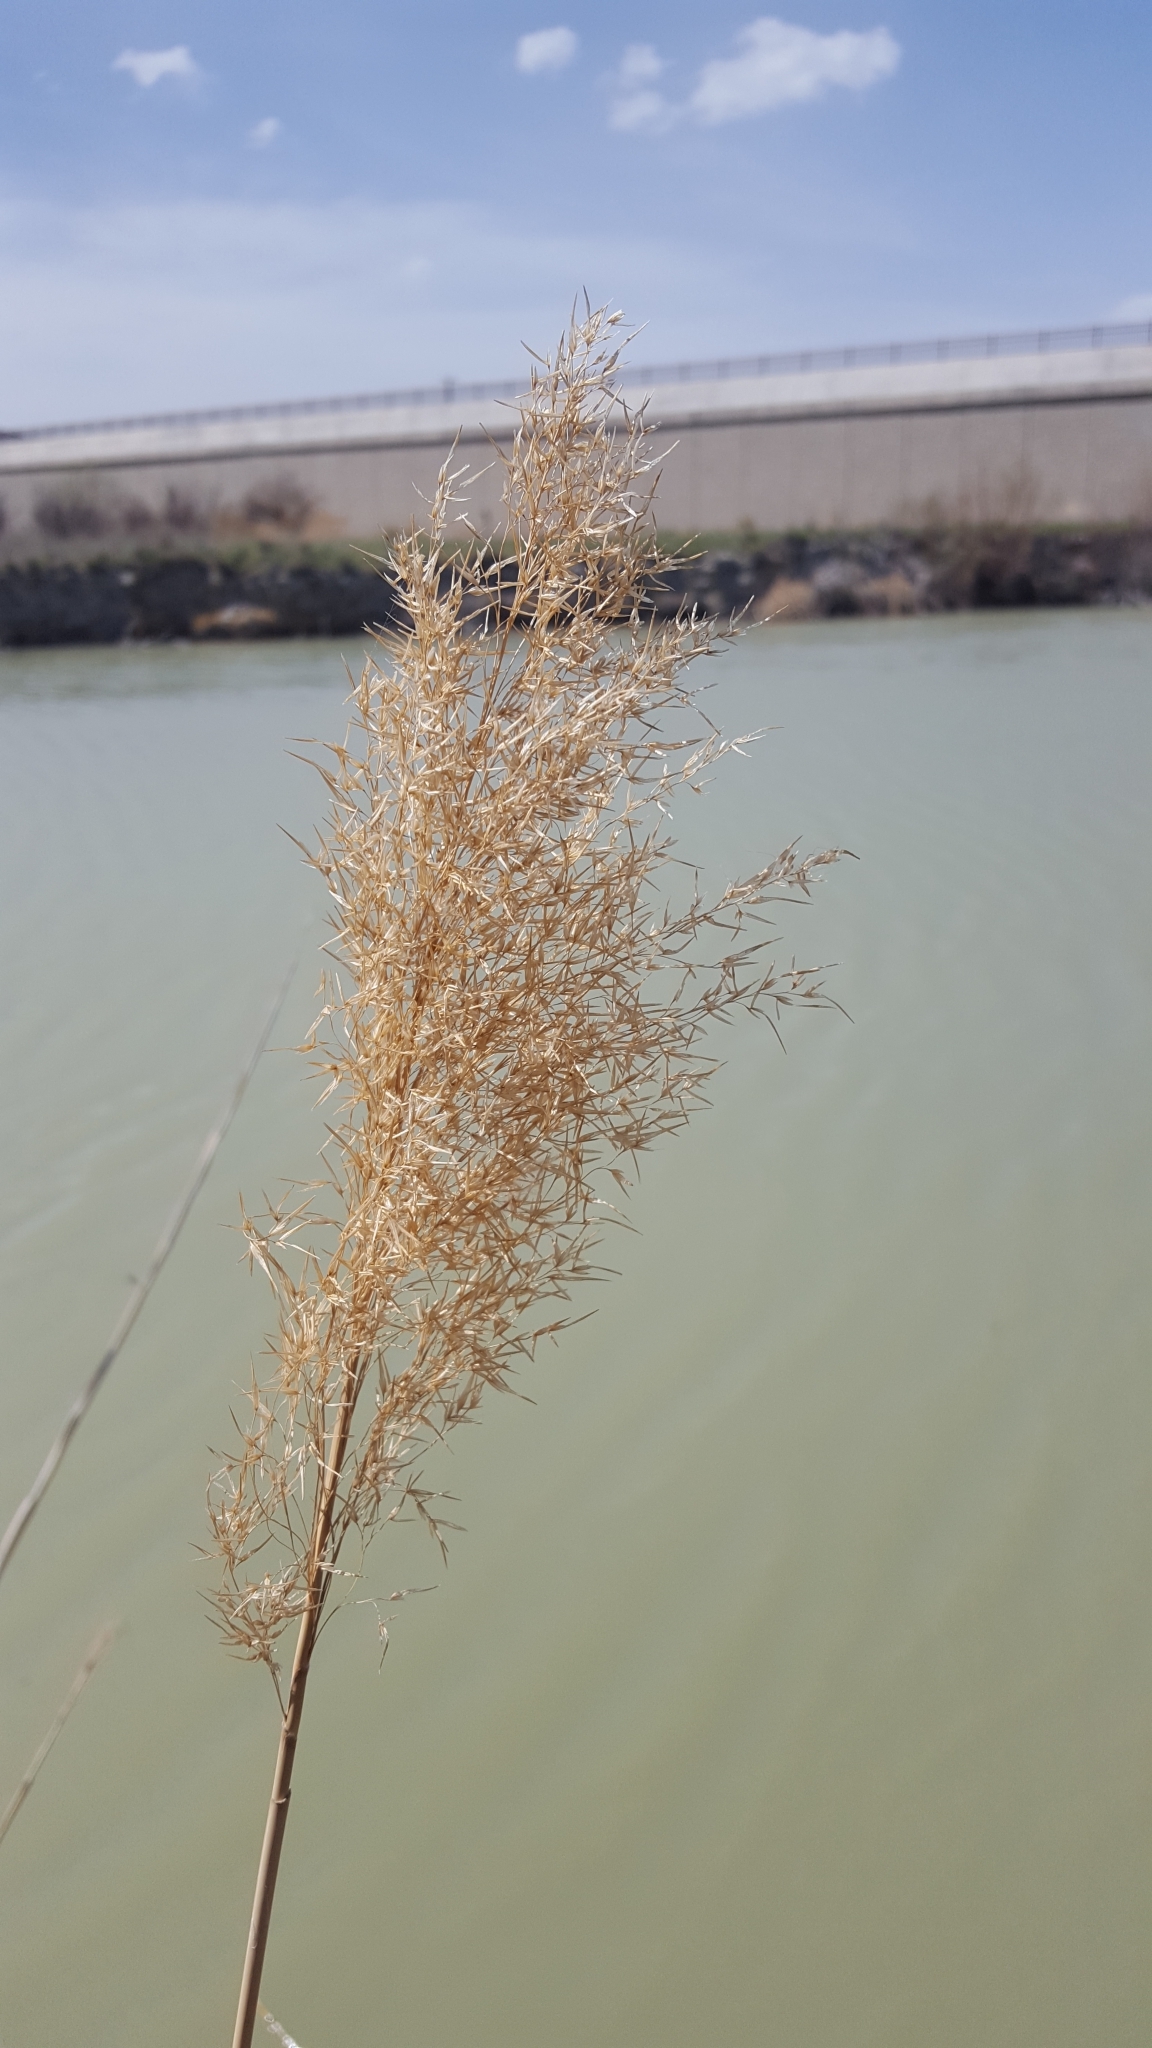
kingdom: Plantae
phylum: Tracheophyta
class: Liliopsida
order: Poales
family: Poaceae
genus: Phragmites
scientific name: Phragmites australis
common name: Common reed
